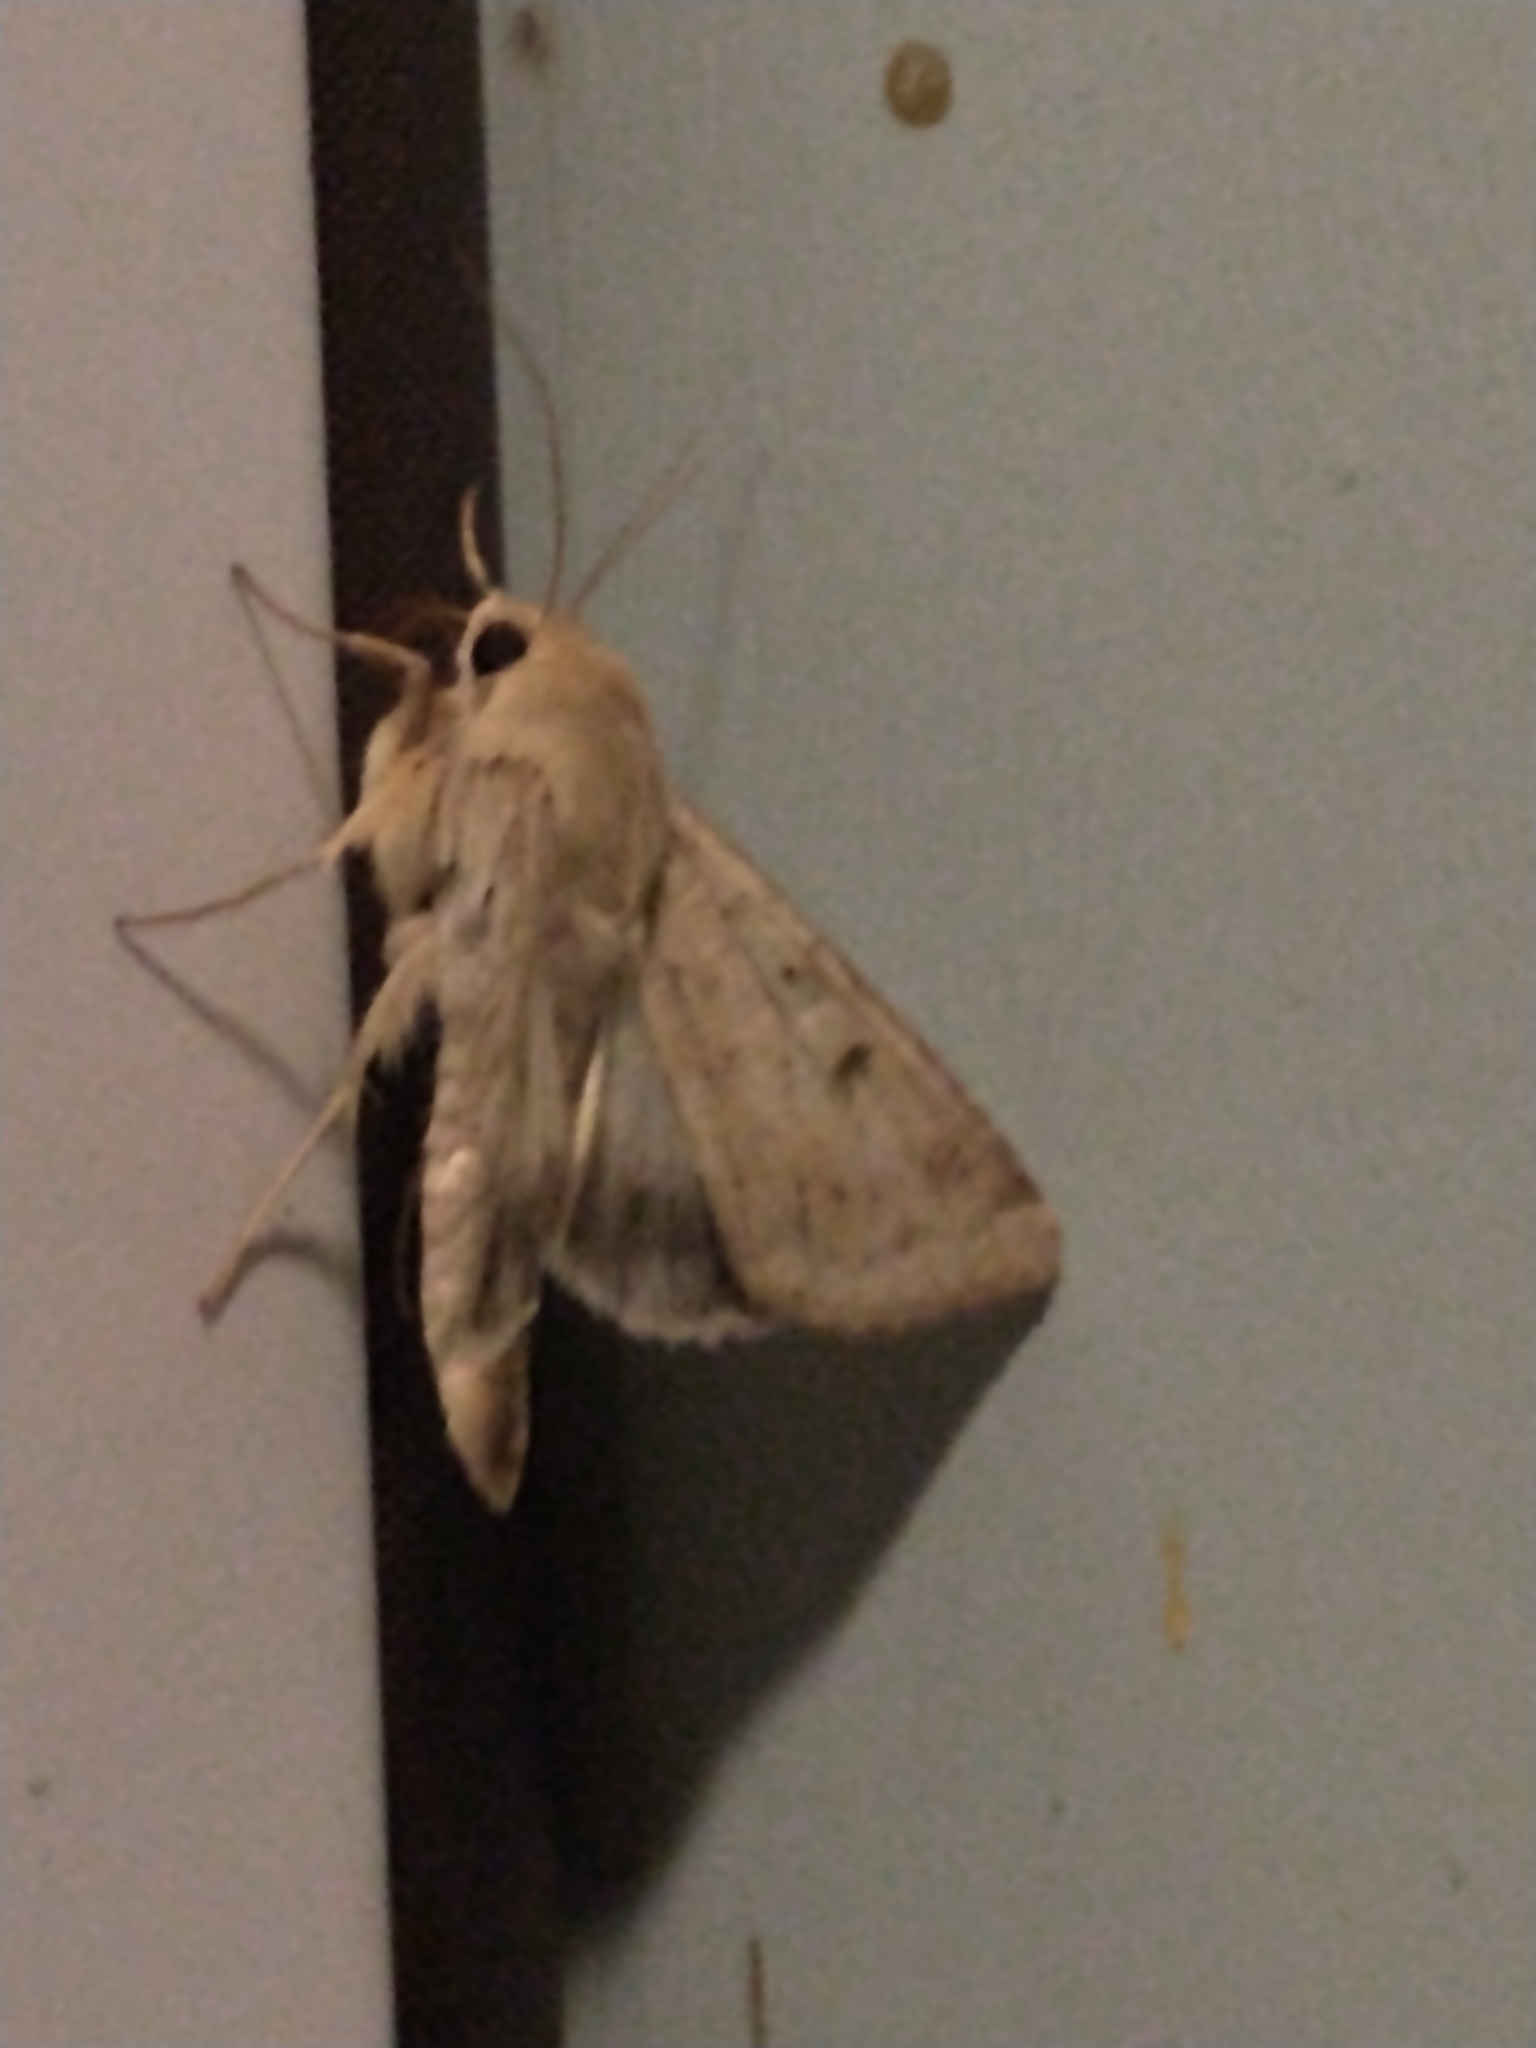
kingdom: Animalia
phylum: Arthropoda
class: Insecta
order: Lepidoptera
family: Noctuidae
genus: Helicoverpa
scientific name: Helicoverpa zea
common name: Bollworm
